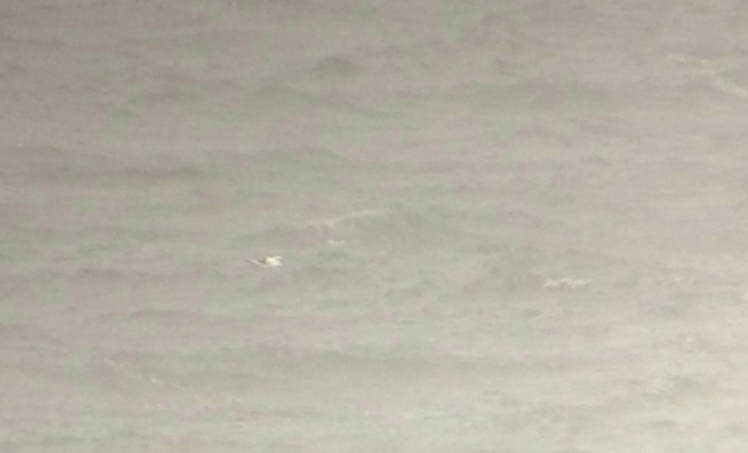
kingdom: Animalia
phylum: Chordata
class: Aves
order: Phaethontiformes
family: Phaethontidae
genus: Phaethon
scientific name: Phaethon lepturus
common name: White-tailed tropicbird
